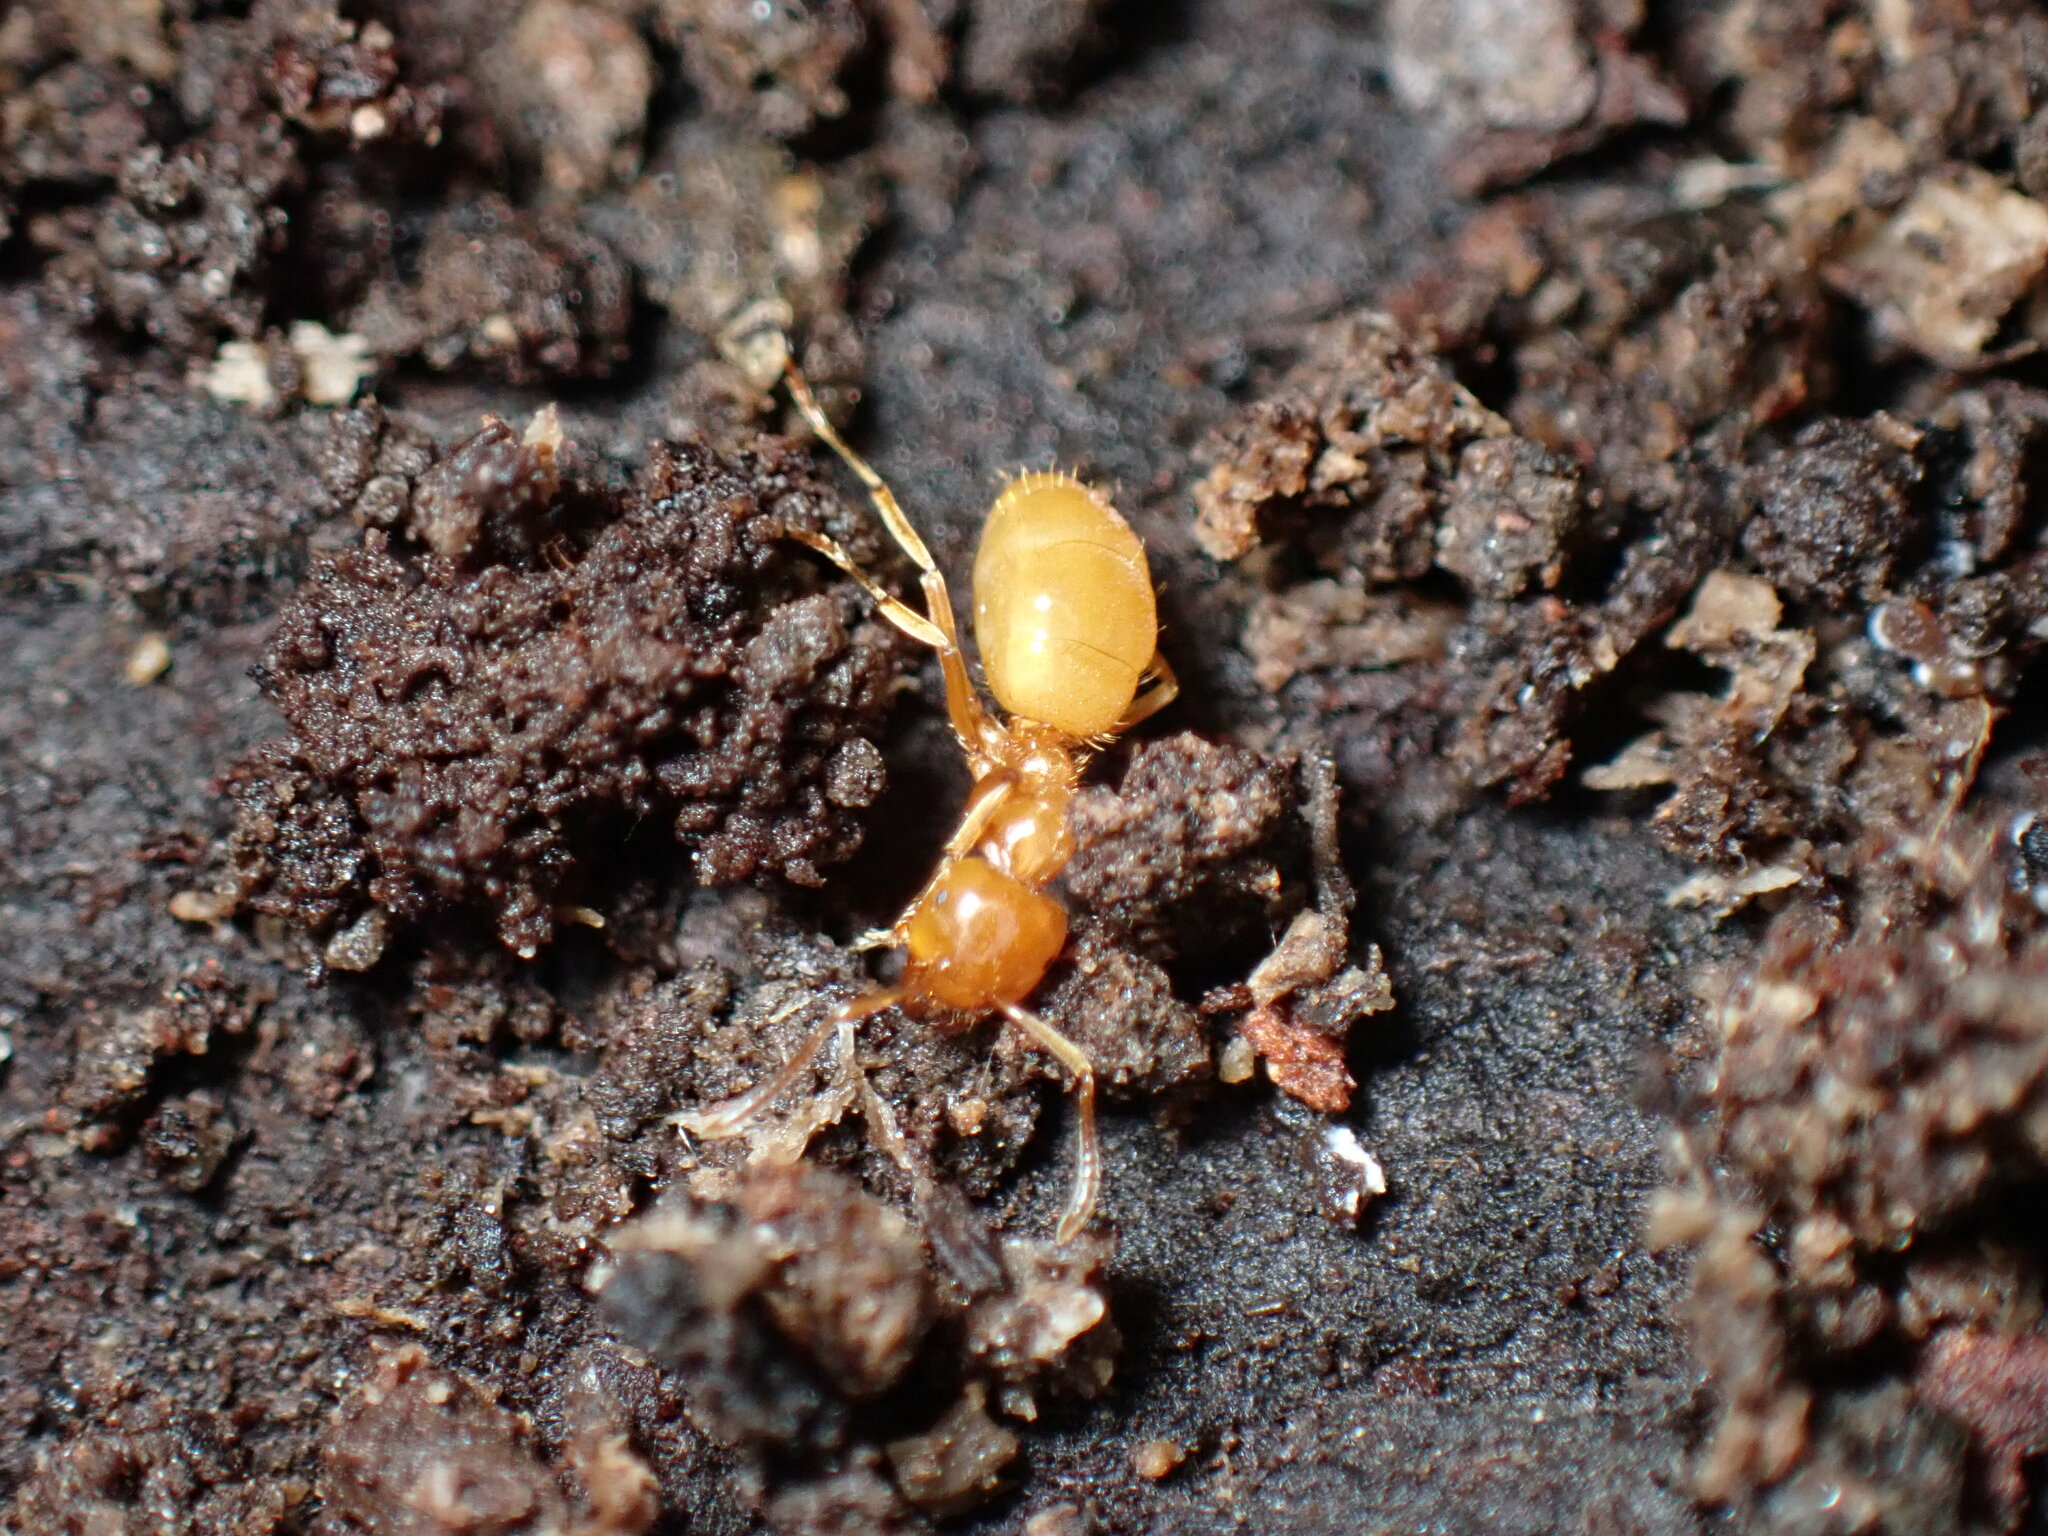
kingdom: Animalia
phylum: Arthropoda
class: Insecta
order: Hymenoptera
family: Formicidae
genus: Acanthomyops
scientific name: Acanthomyops
